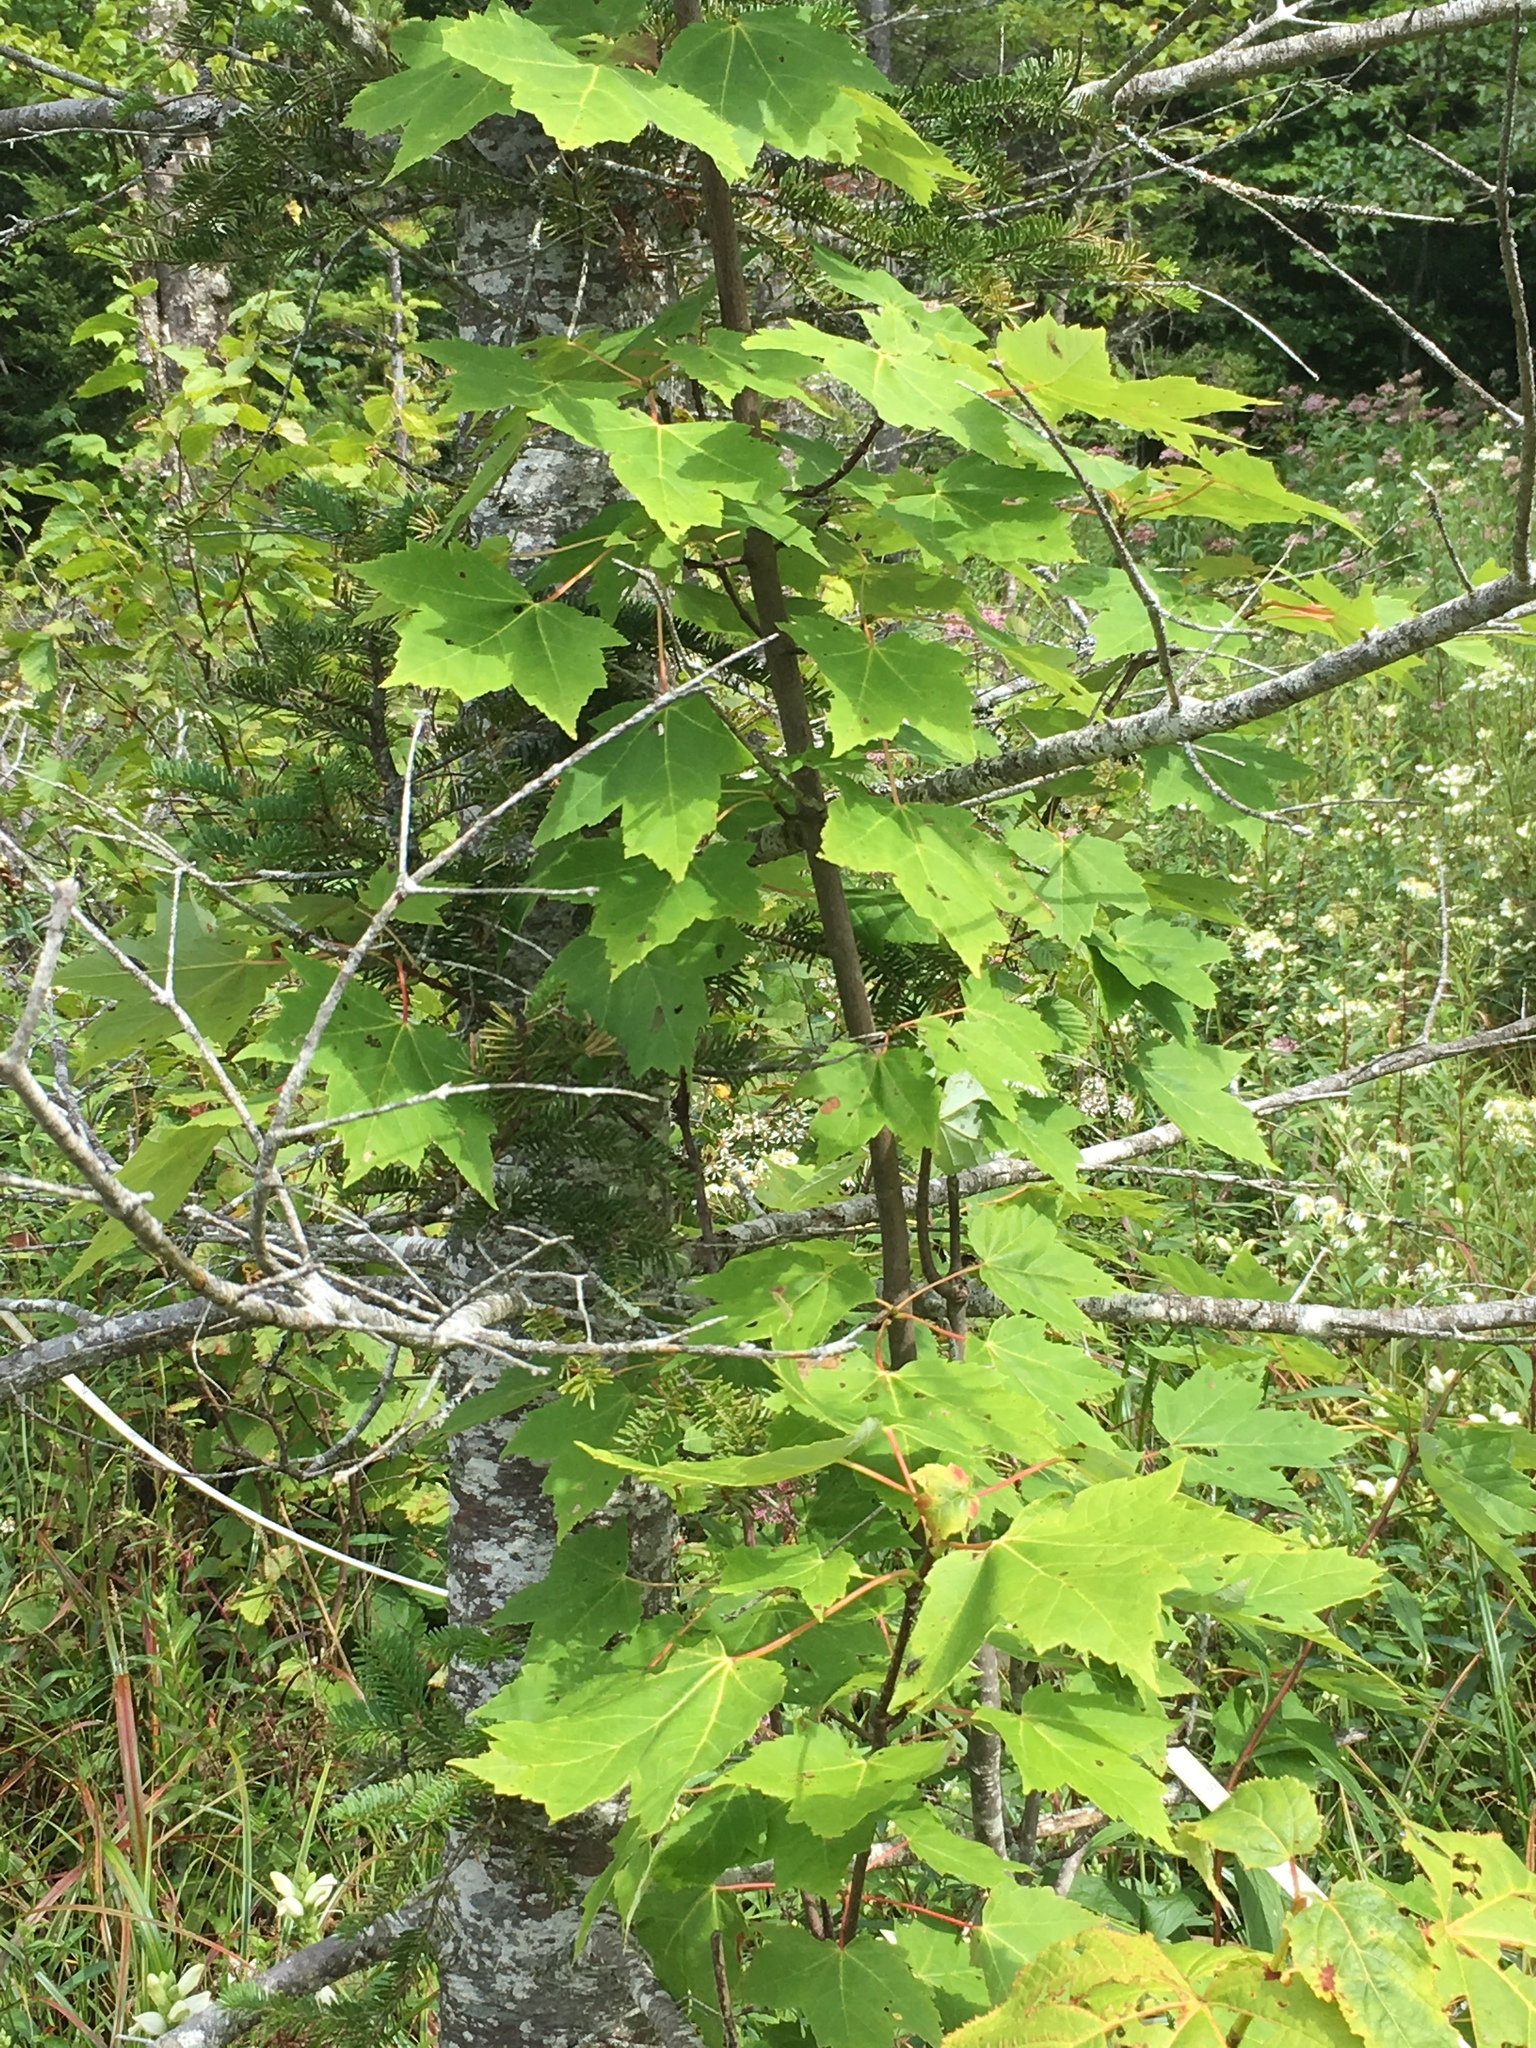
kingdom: Plantae
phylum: Tracheophyta
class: Magnoliopsida
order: Sapindales
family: Sapindaceae
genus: Acer
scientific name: Acer rubrum
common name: Red maple
